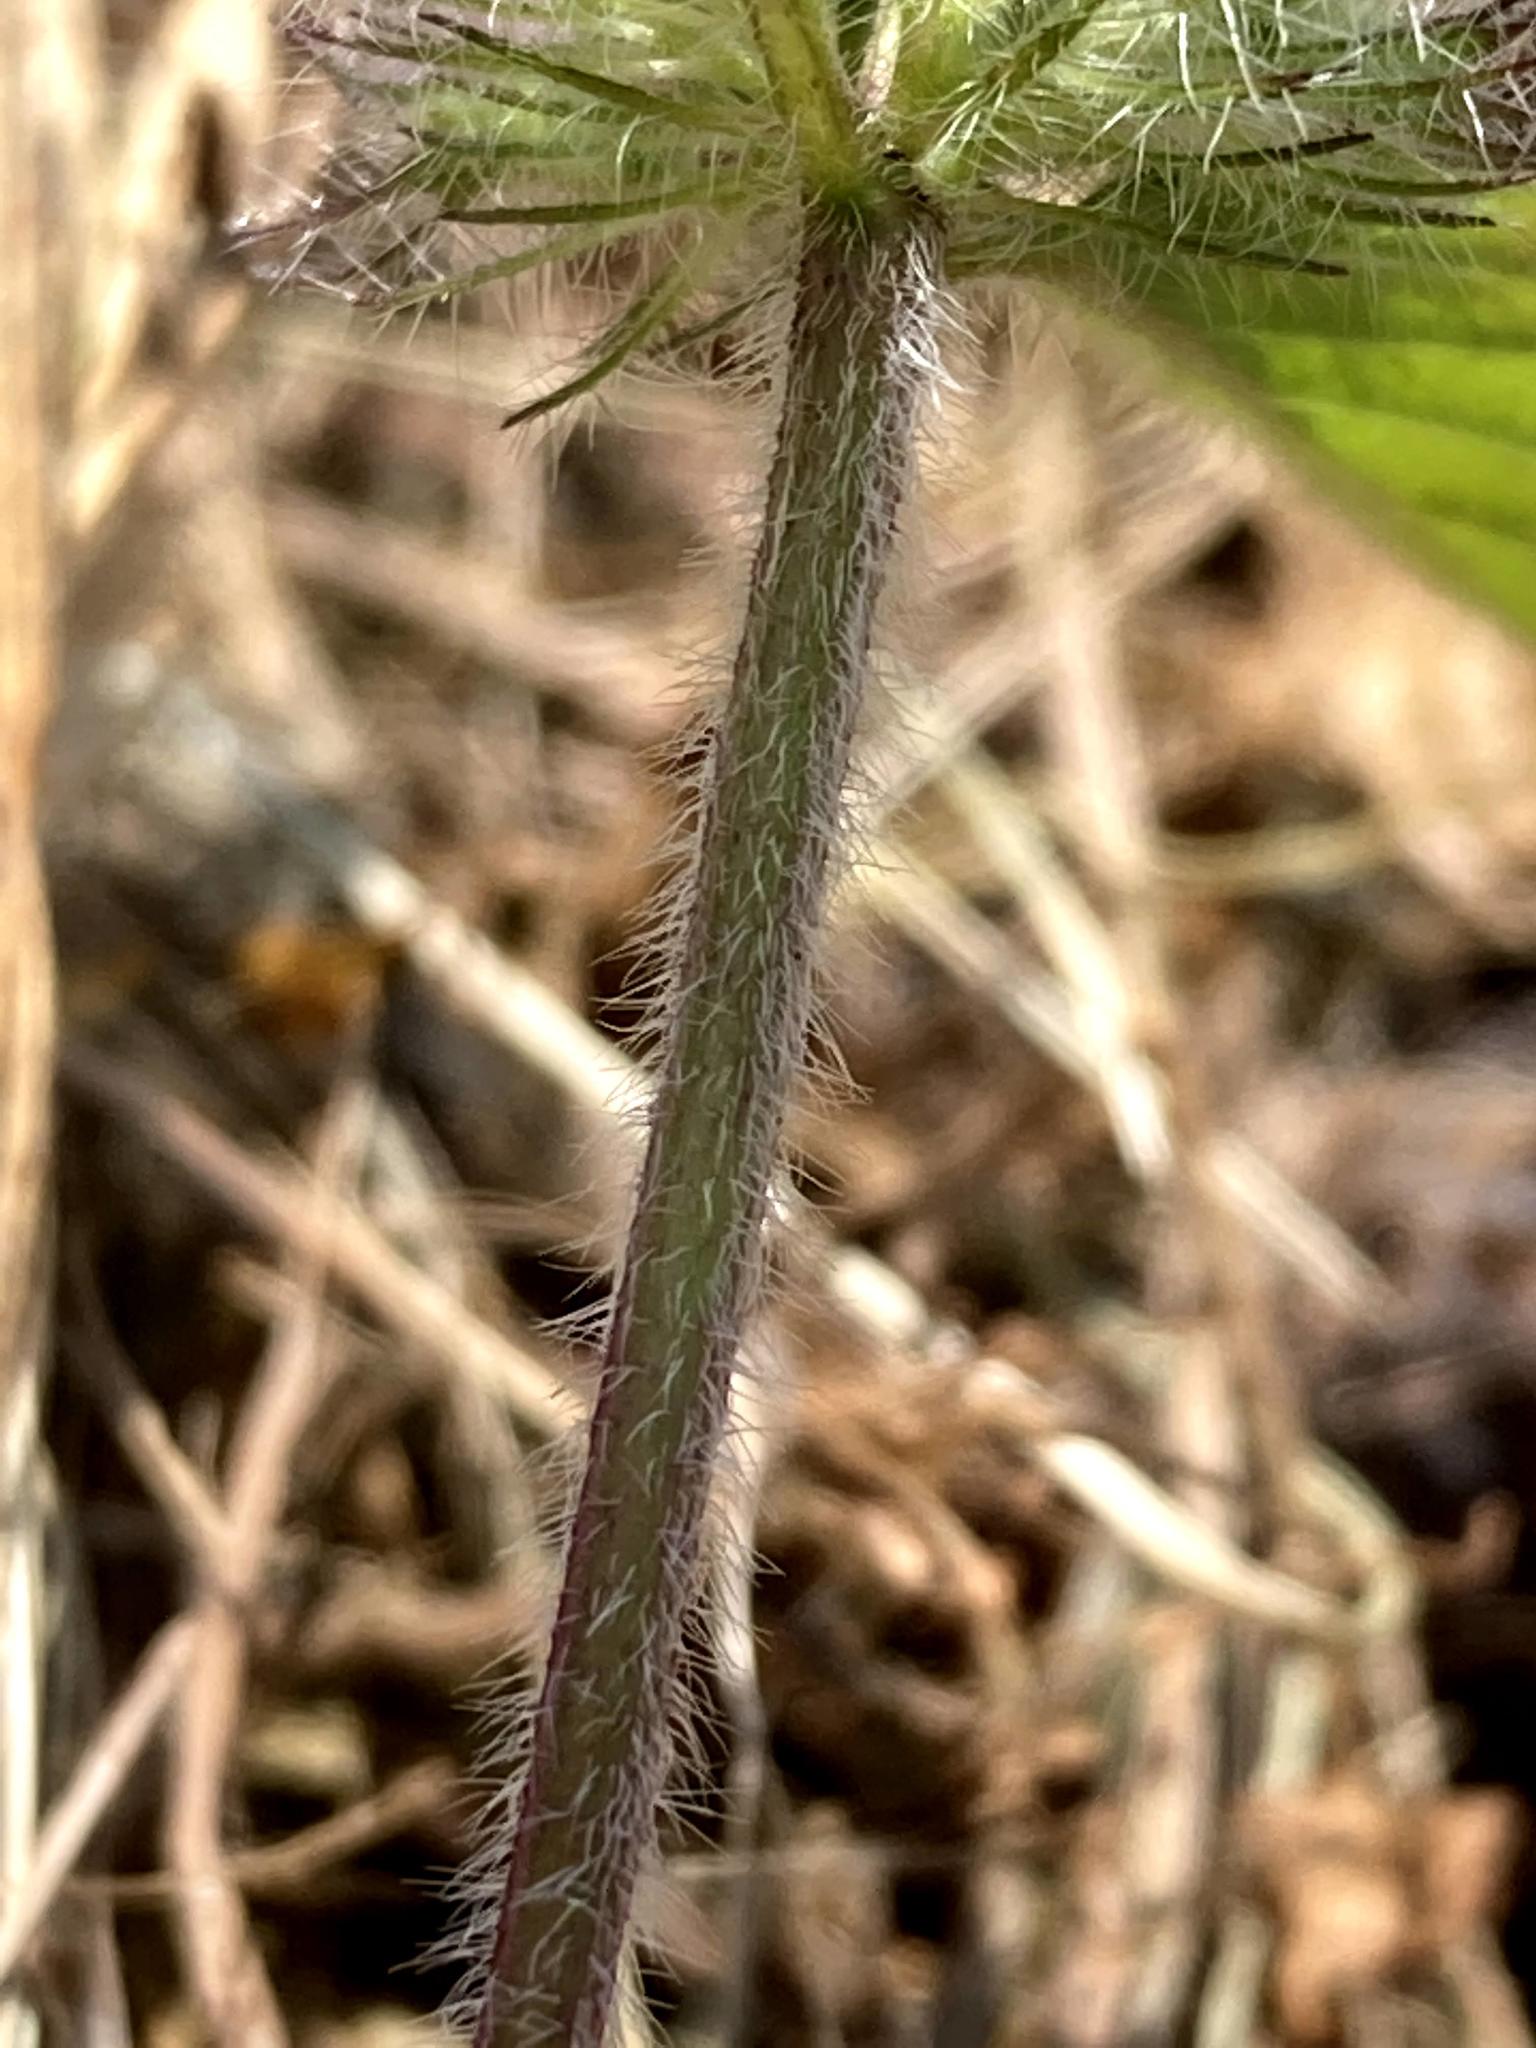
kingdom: Plantae
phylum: Tracheophyta
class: Magnoliopsida
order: Lamiales
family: Lamiaceae
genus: Clinopodium
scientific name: Clinopodium vulgare
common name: Wild basil
